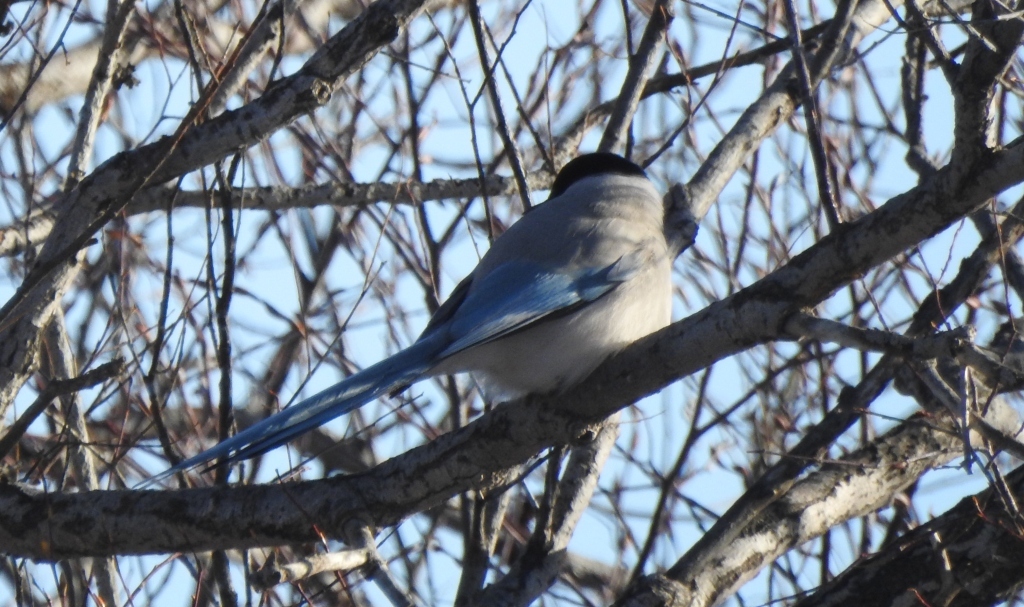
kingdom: Animalia
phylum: Chordata
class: Aves
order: Passeriformes
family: Corvidae
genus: Cyanopica
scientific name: Cyanopica cyanus
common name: Azure-winged magpie
